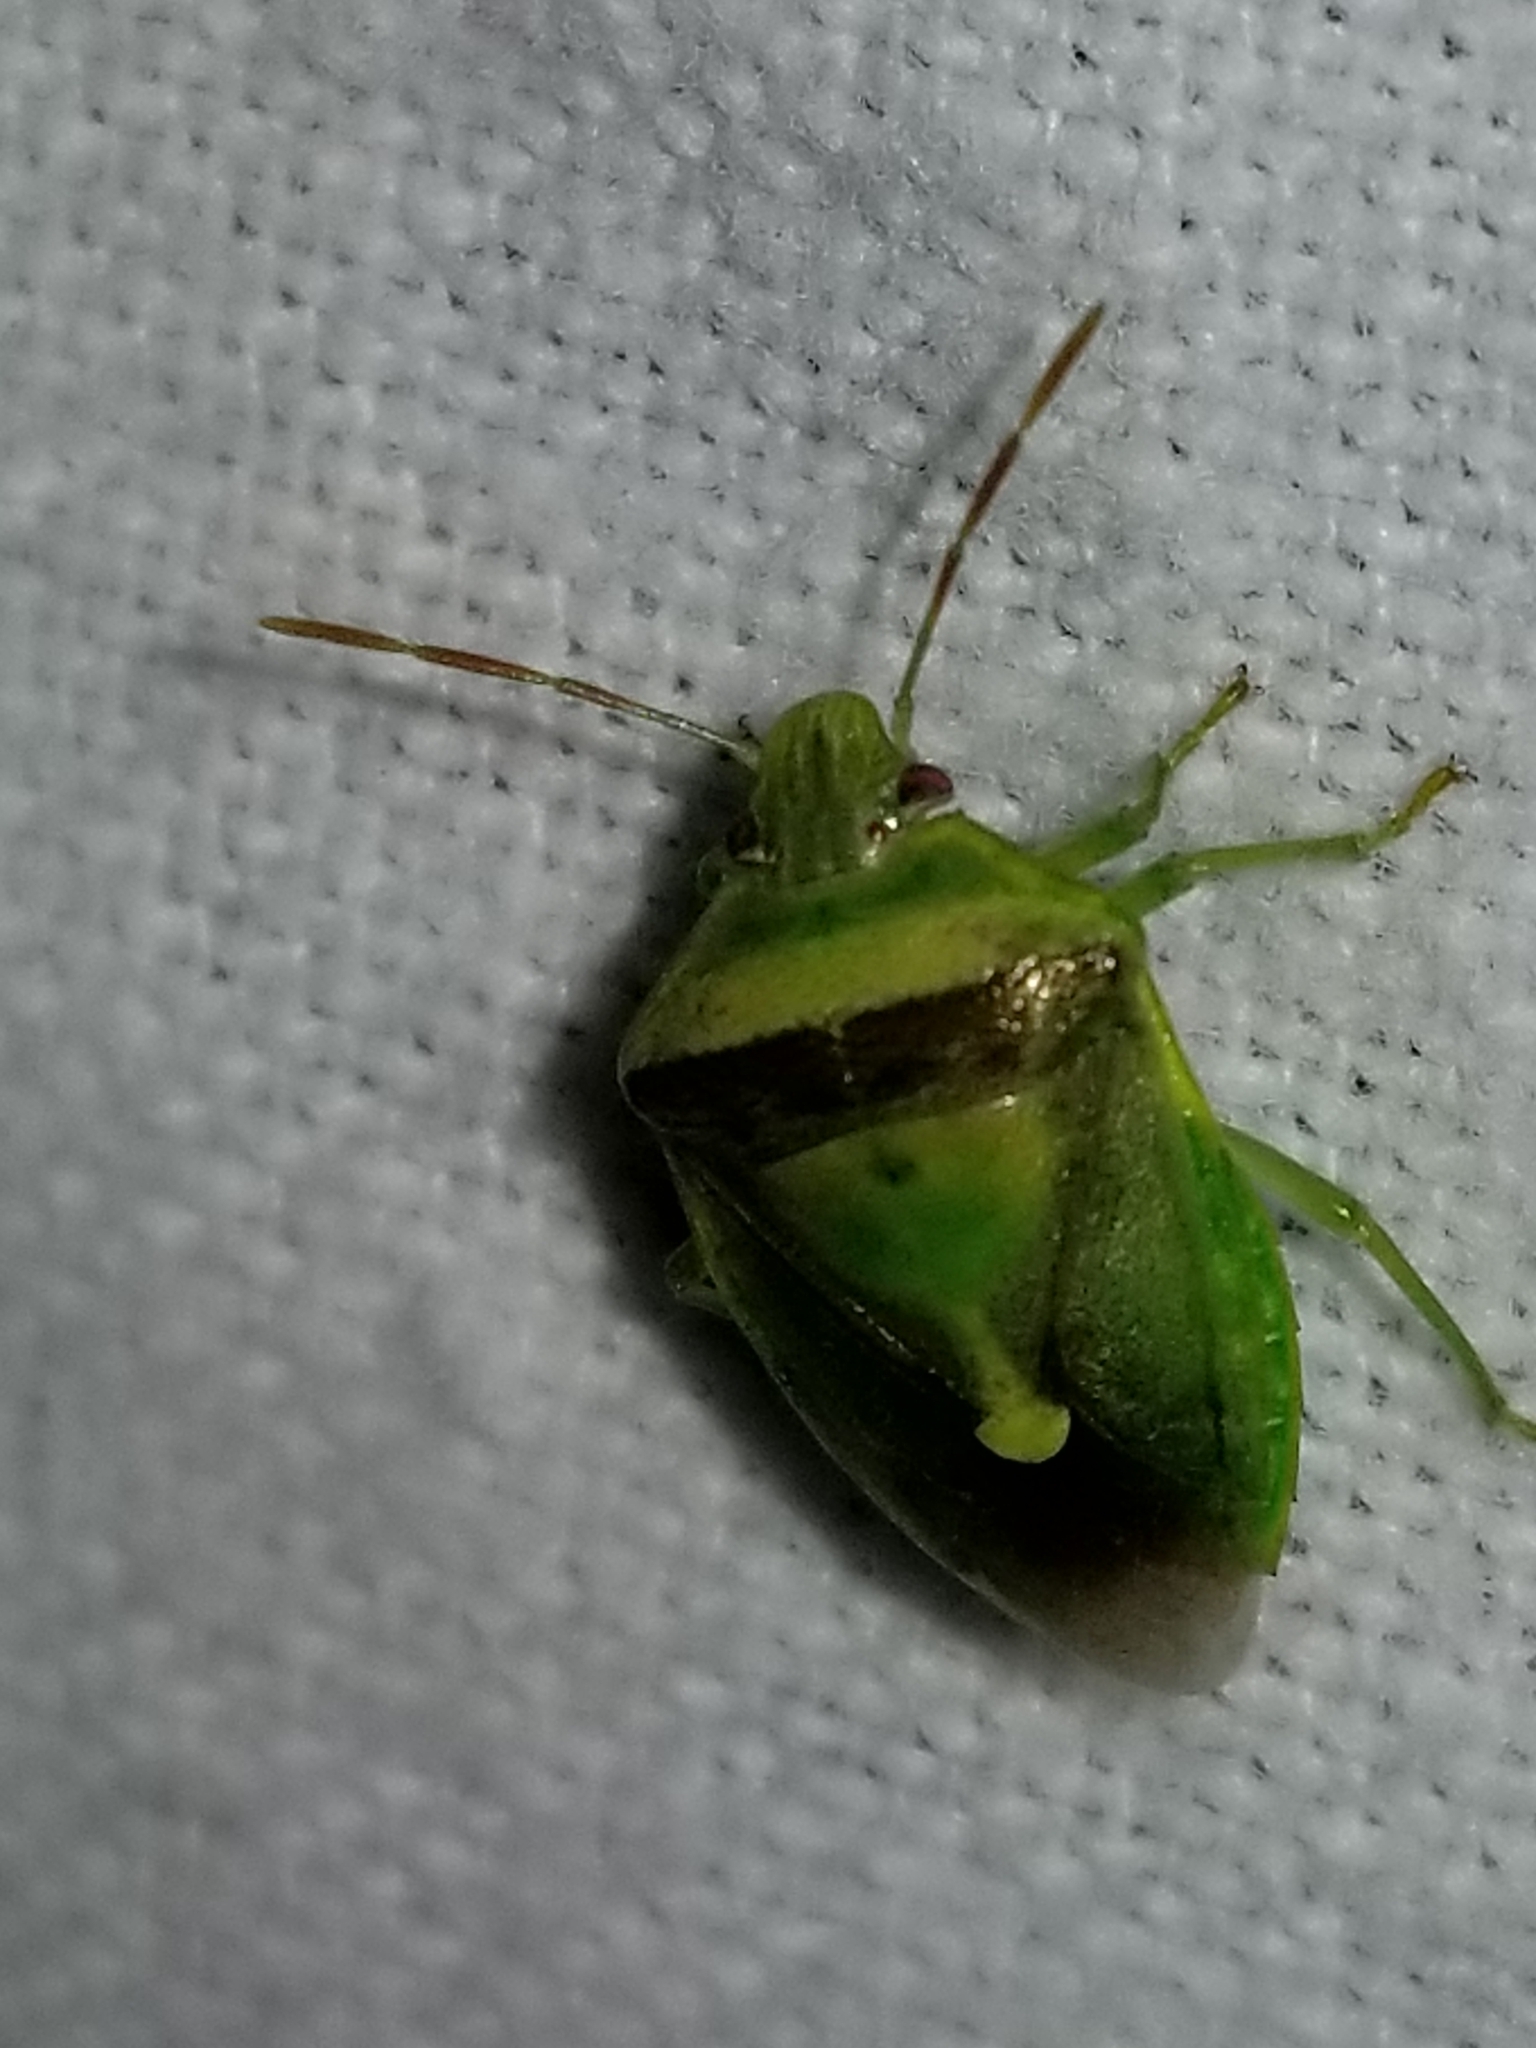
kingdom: Animalia
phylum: Arthropoda
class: Insecta
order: Hemiptera
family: Pentatomidae
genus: Banasa
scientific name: Banasa dimidiata
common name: Green burgundy stink bug
